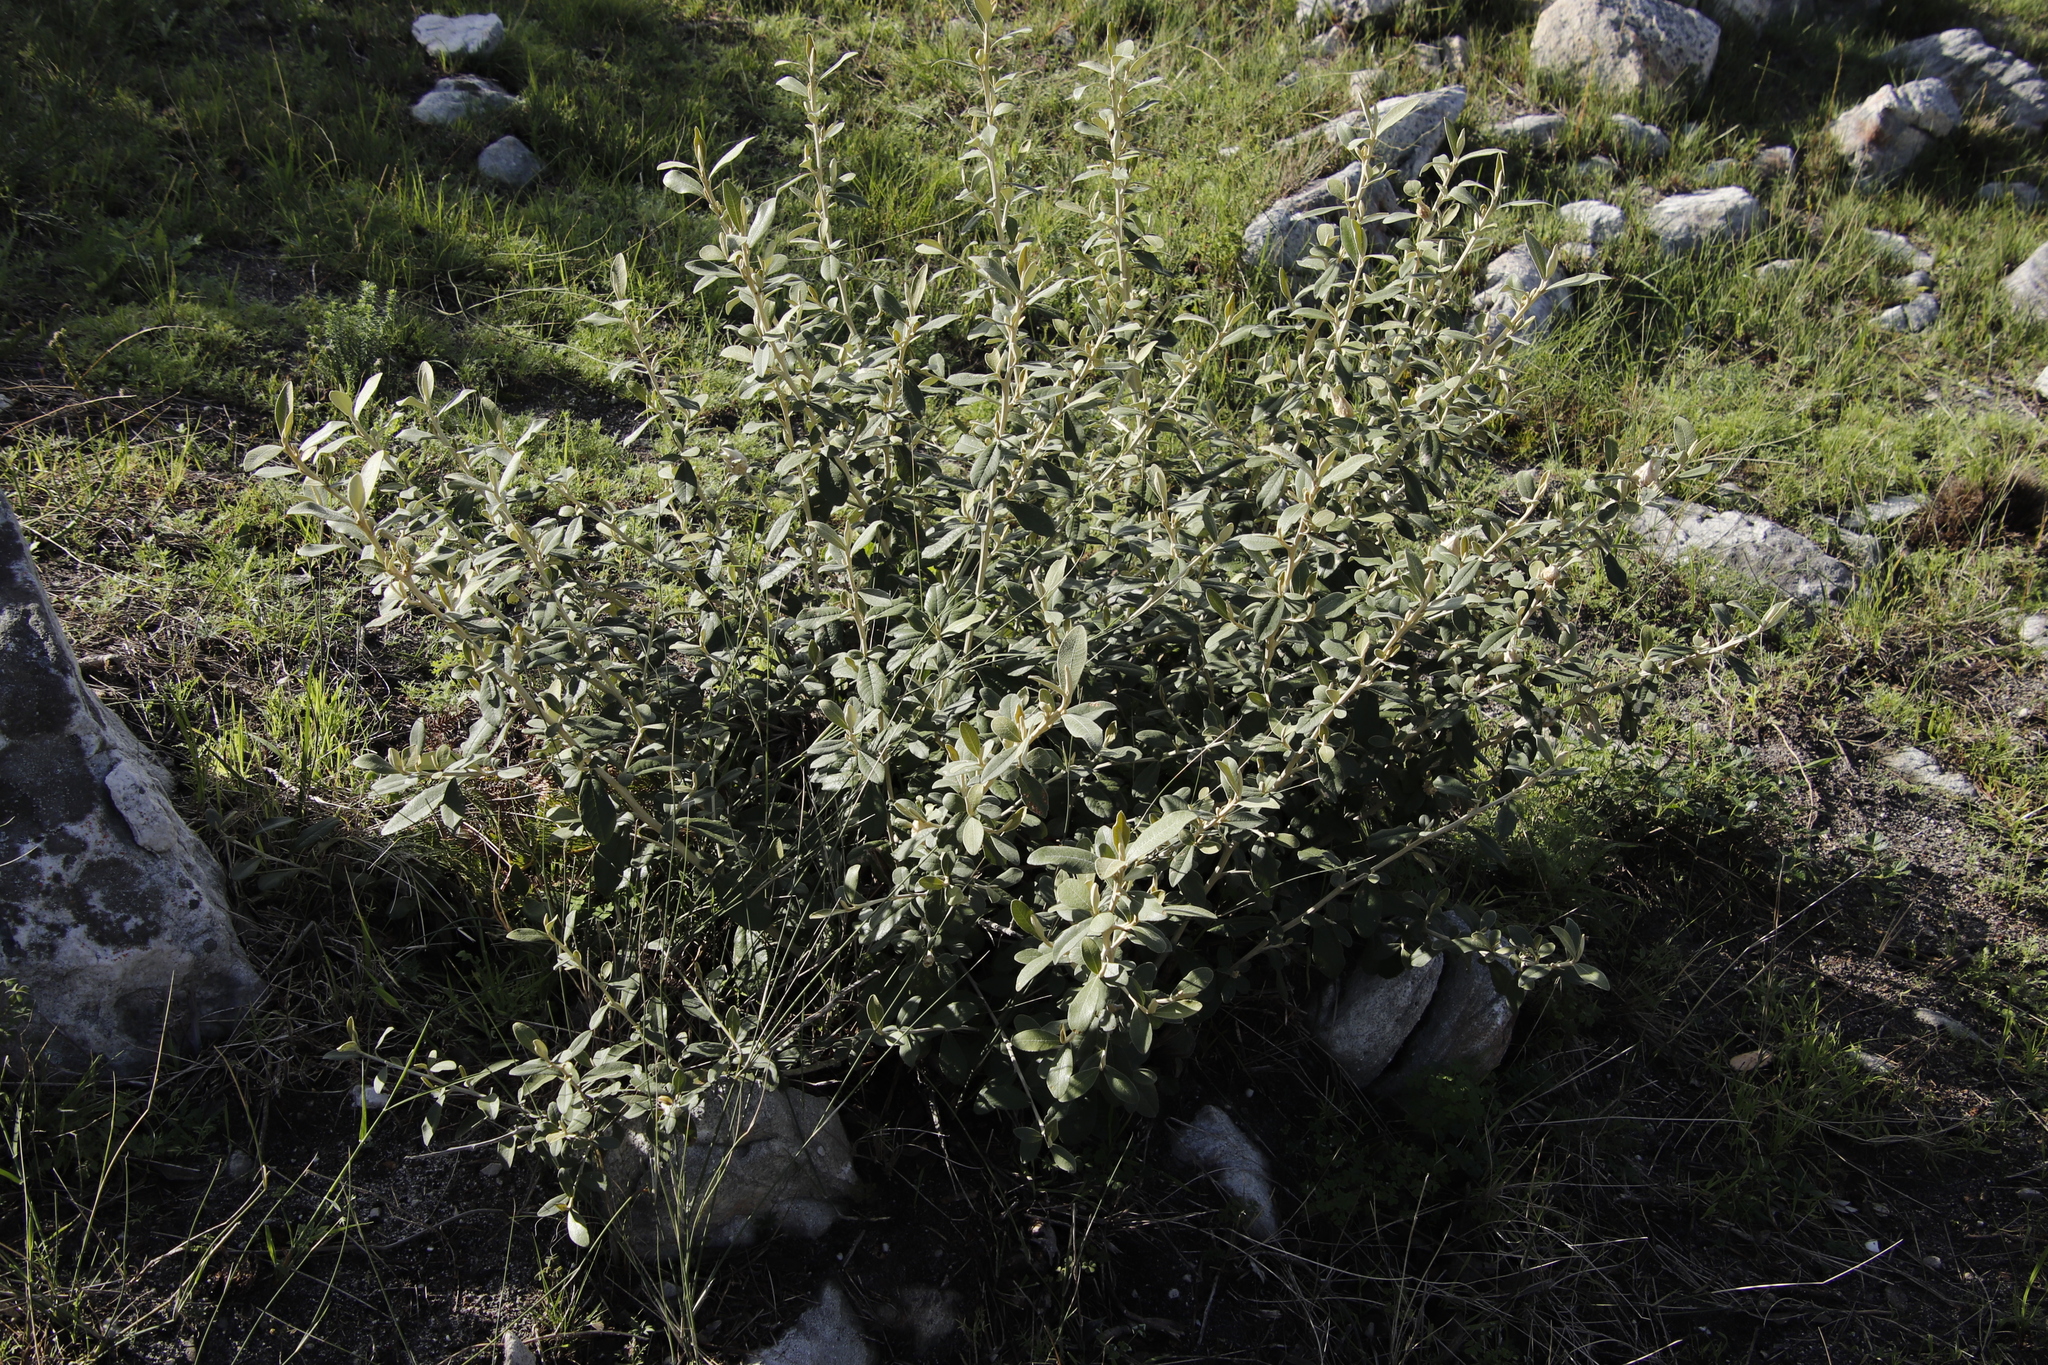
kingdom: Plantae
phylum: Tracheophyta
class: Magnoliopsida
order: Asterales
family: Asteraceae
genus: Tarchonanthus
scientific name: Tarchonanthus littoralis
